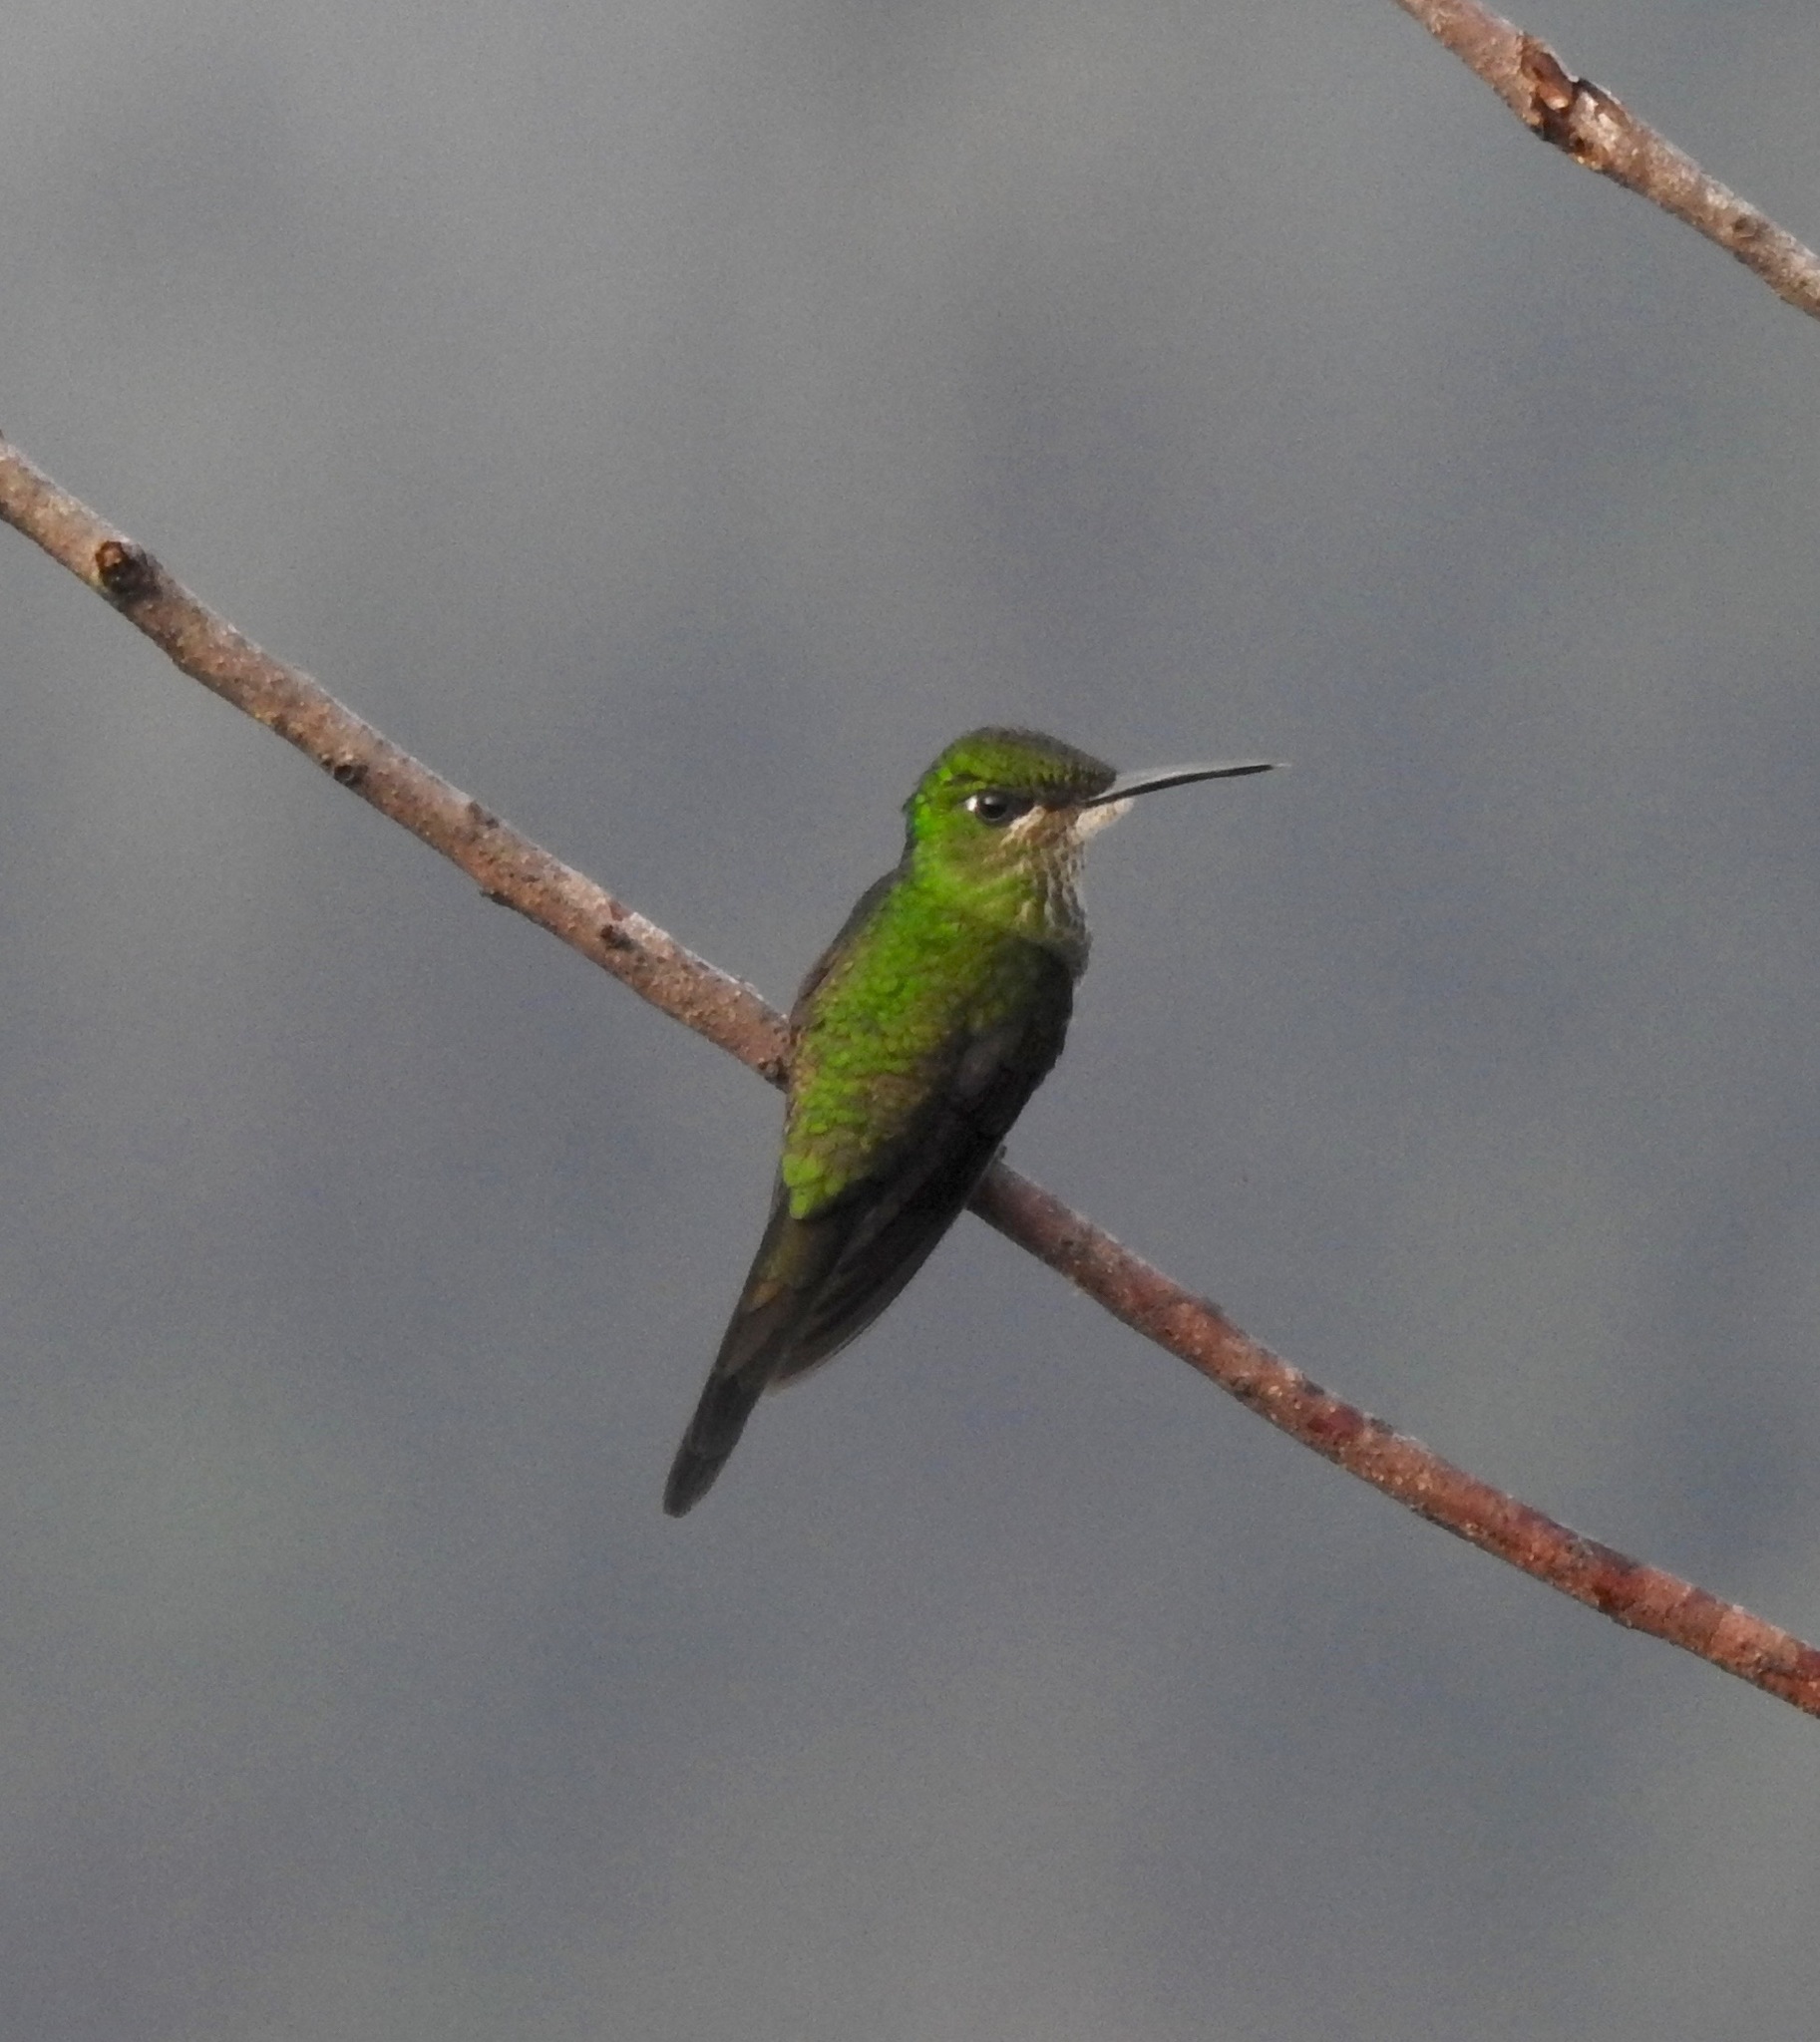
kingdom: Animalia
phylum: Chordata
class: Aves
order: Apodiformes
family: Trochilidae
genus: Heliodoxa
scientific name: Heliodoxa imperatrix
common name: Empress brilliant
